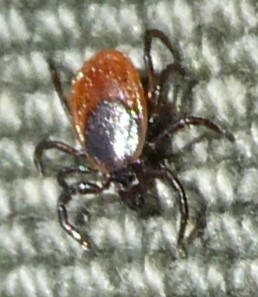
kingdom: Animalia
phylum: Arthropoda
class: Arachnida
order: Ixodida
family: Ixodidae
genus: Ixodes
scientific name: Ixodes scapularis
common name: Black legged tick
